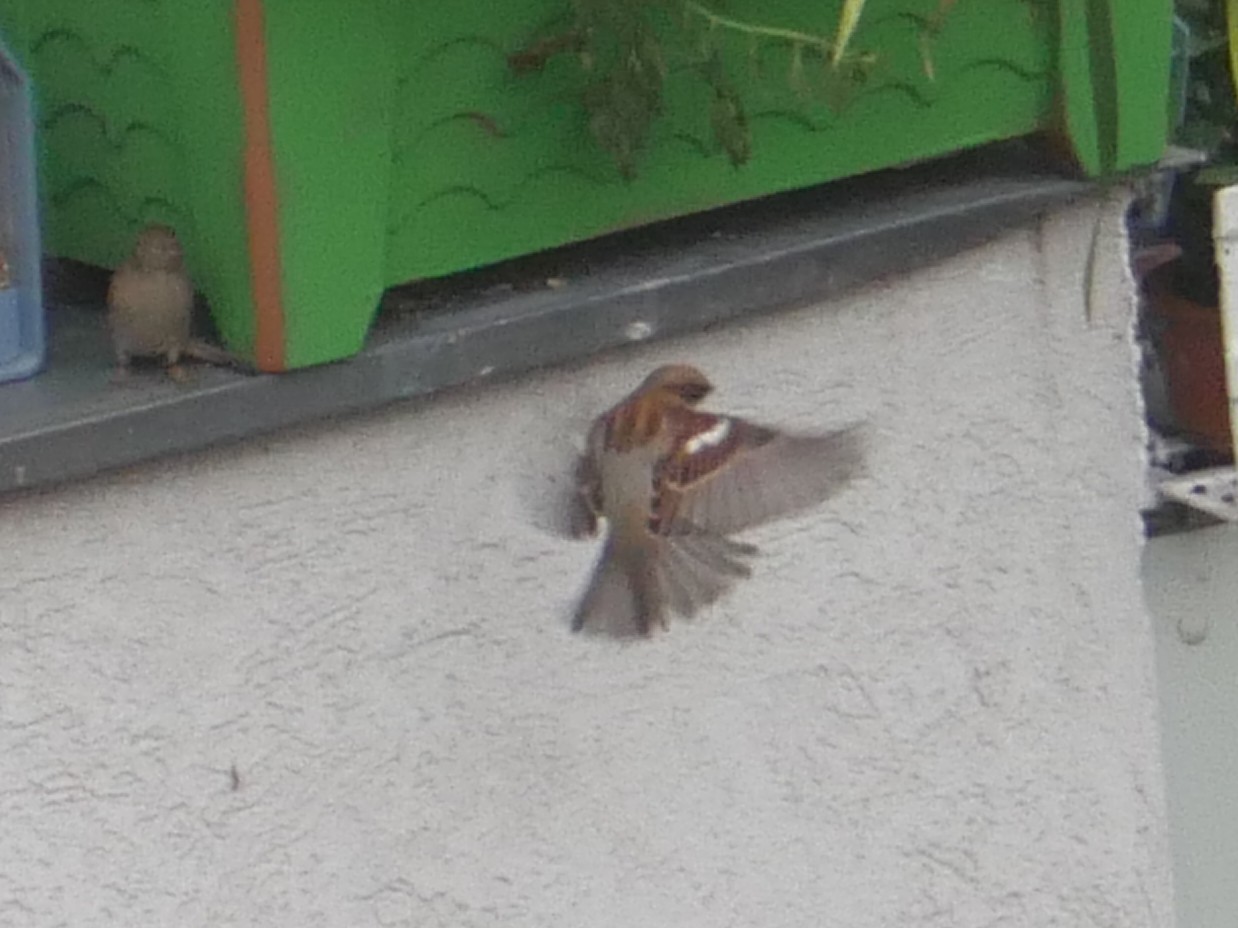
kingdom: Animalia
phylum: Chordata
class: Aves
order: Passeriformes
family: Passeridae
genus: Passer
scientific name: Passer domesticus
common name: House sparrow
